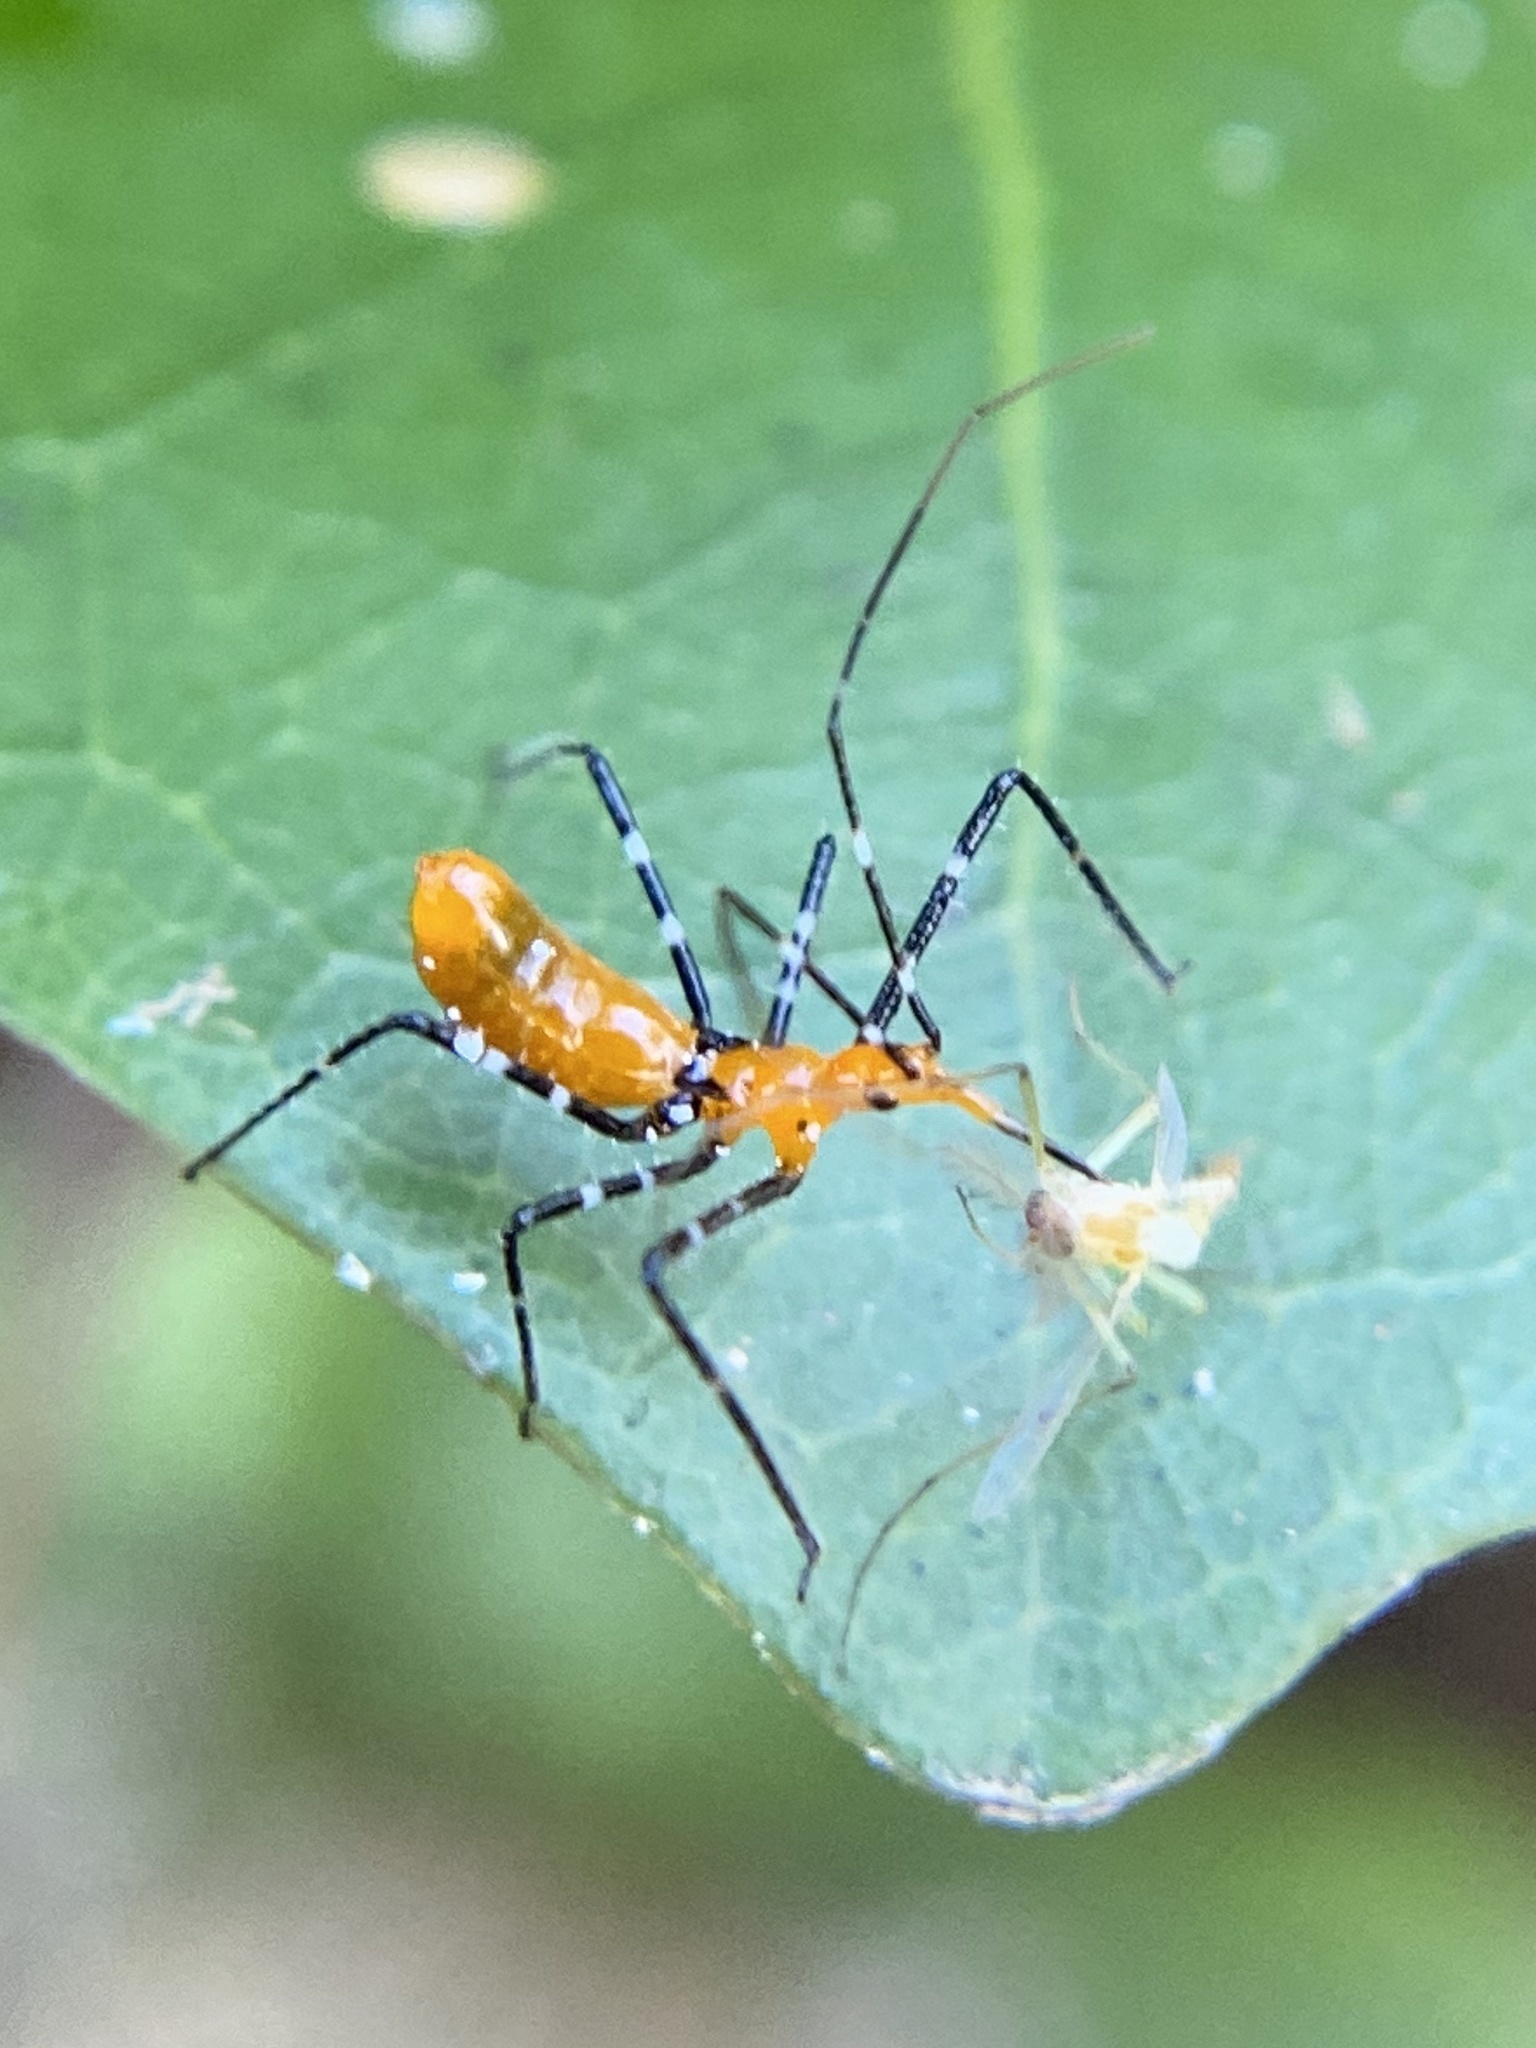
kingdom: Animalia
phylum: Arthropoda
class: Insecta
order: Hemiptera
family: Reduviidae
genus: Zelus
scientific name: Zelus longipes
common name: Milkweed assassin bug
